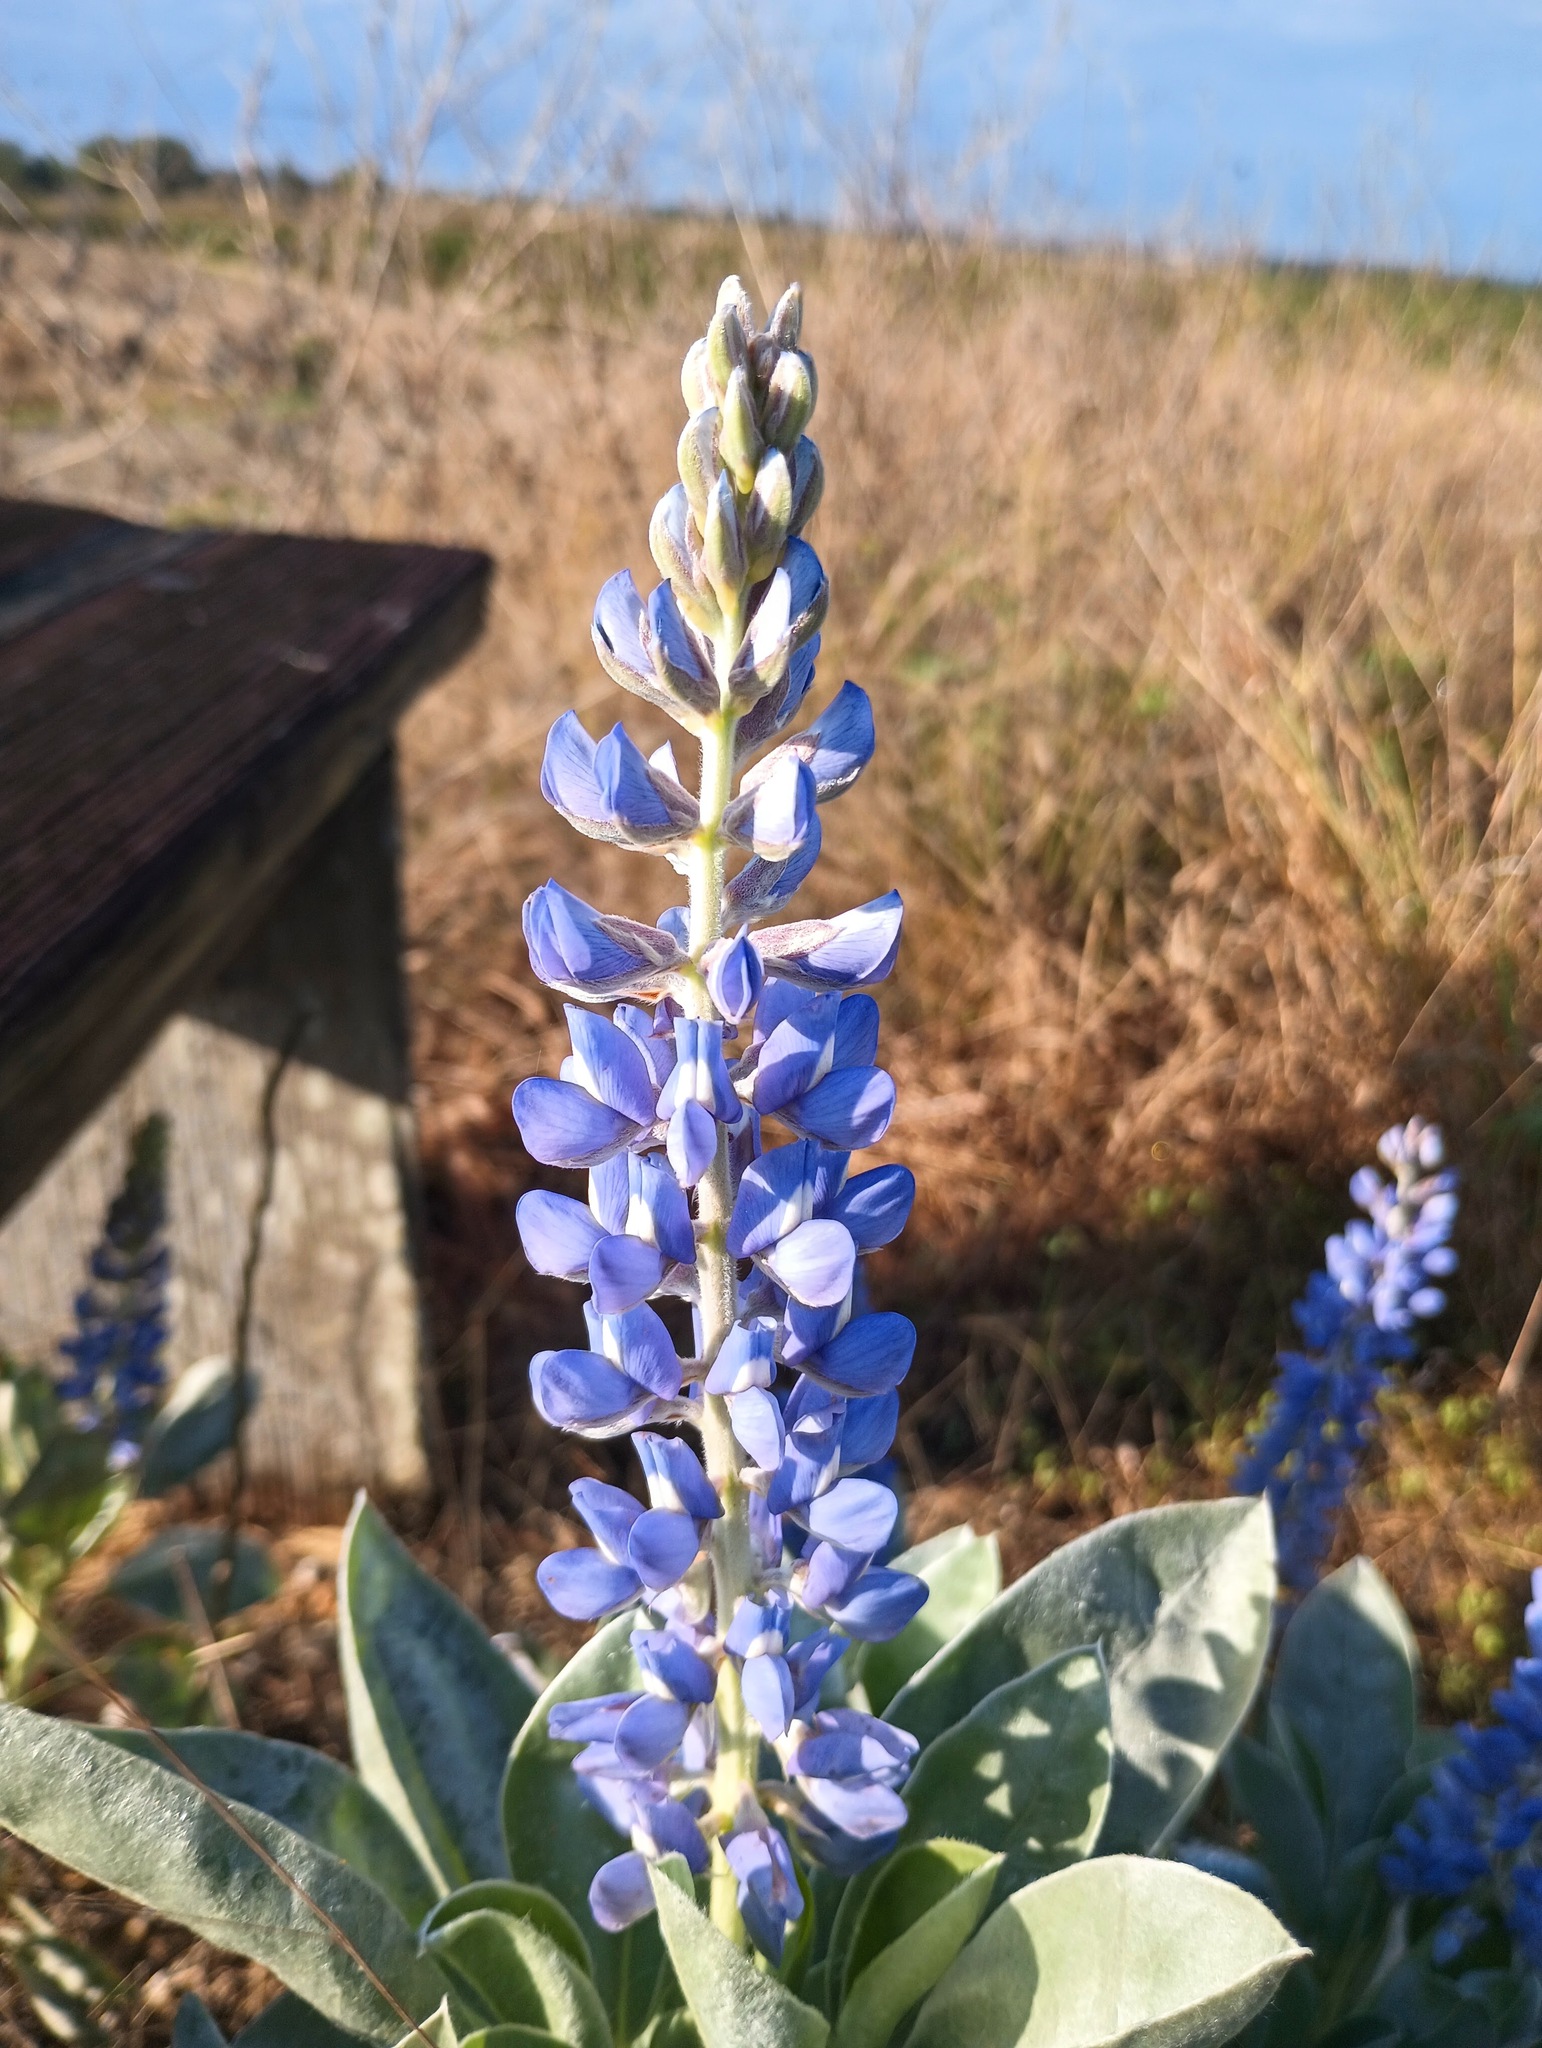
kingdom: Plantae
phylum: Tracheophyta
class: Magnoliopsida
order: Fabales
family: Fabaceae
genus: Lupinus
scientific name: Lupinus cumulicola
